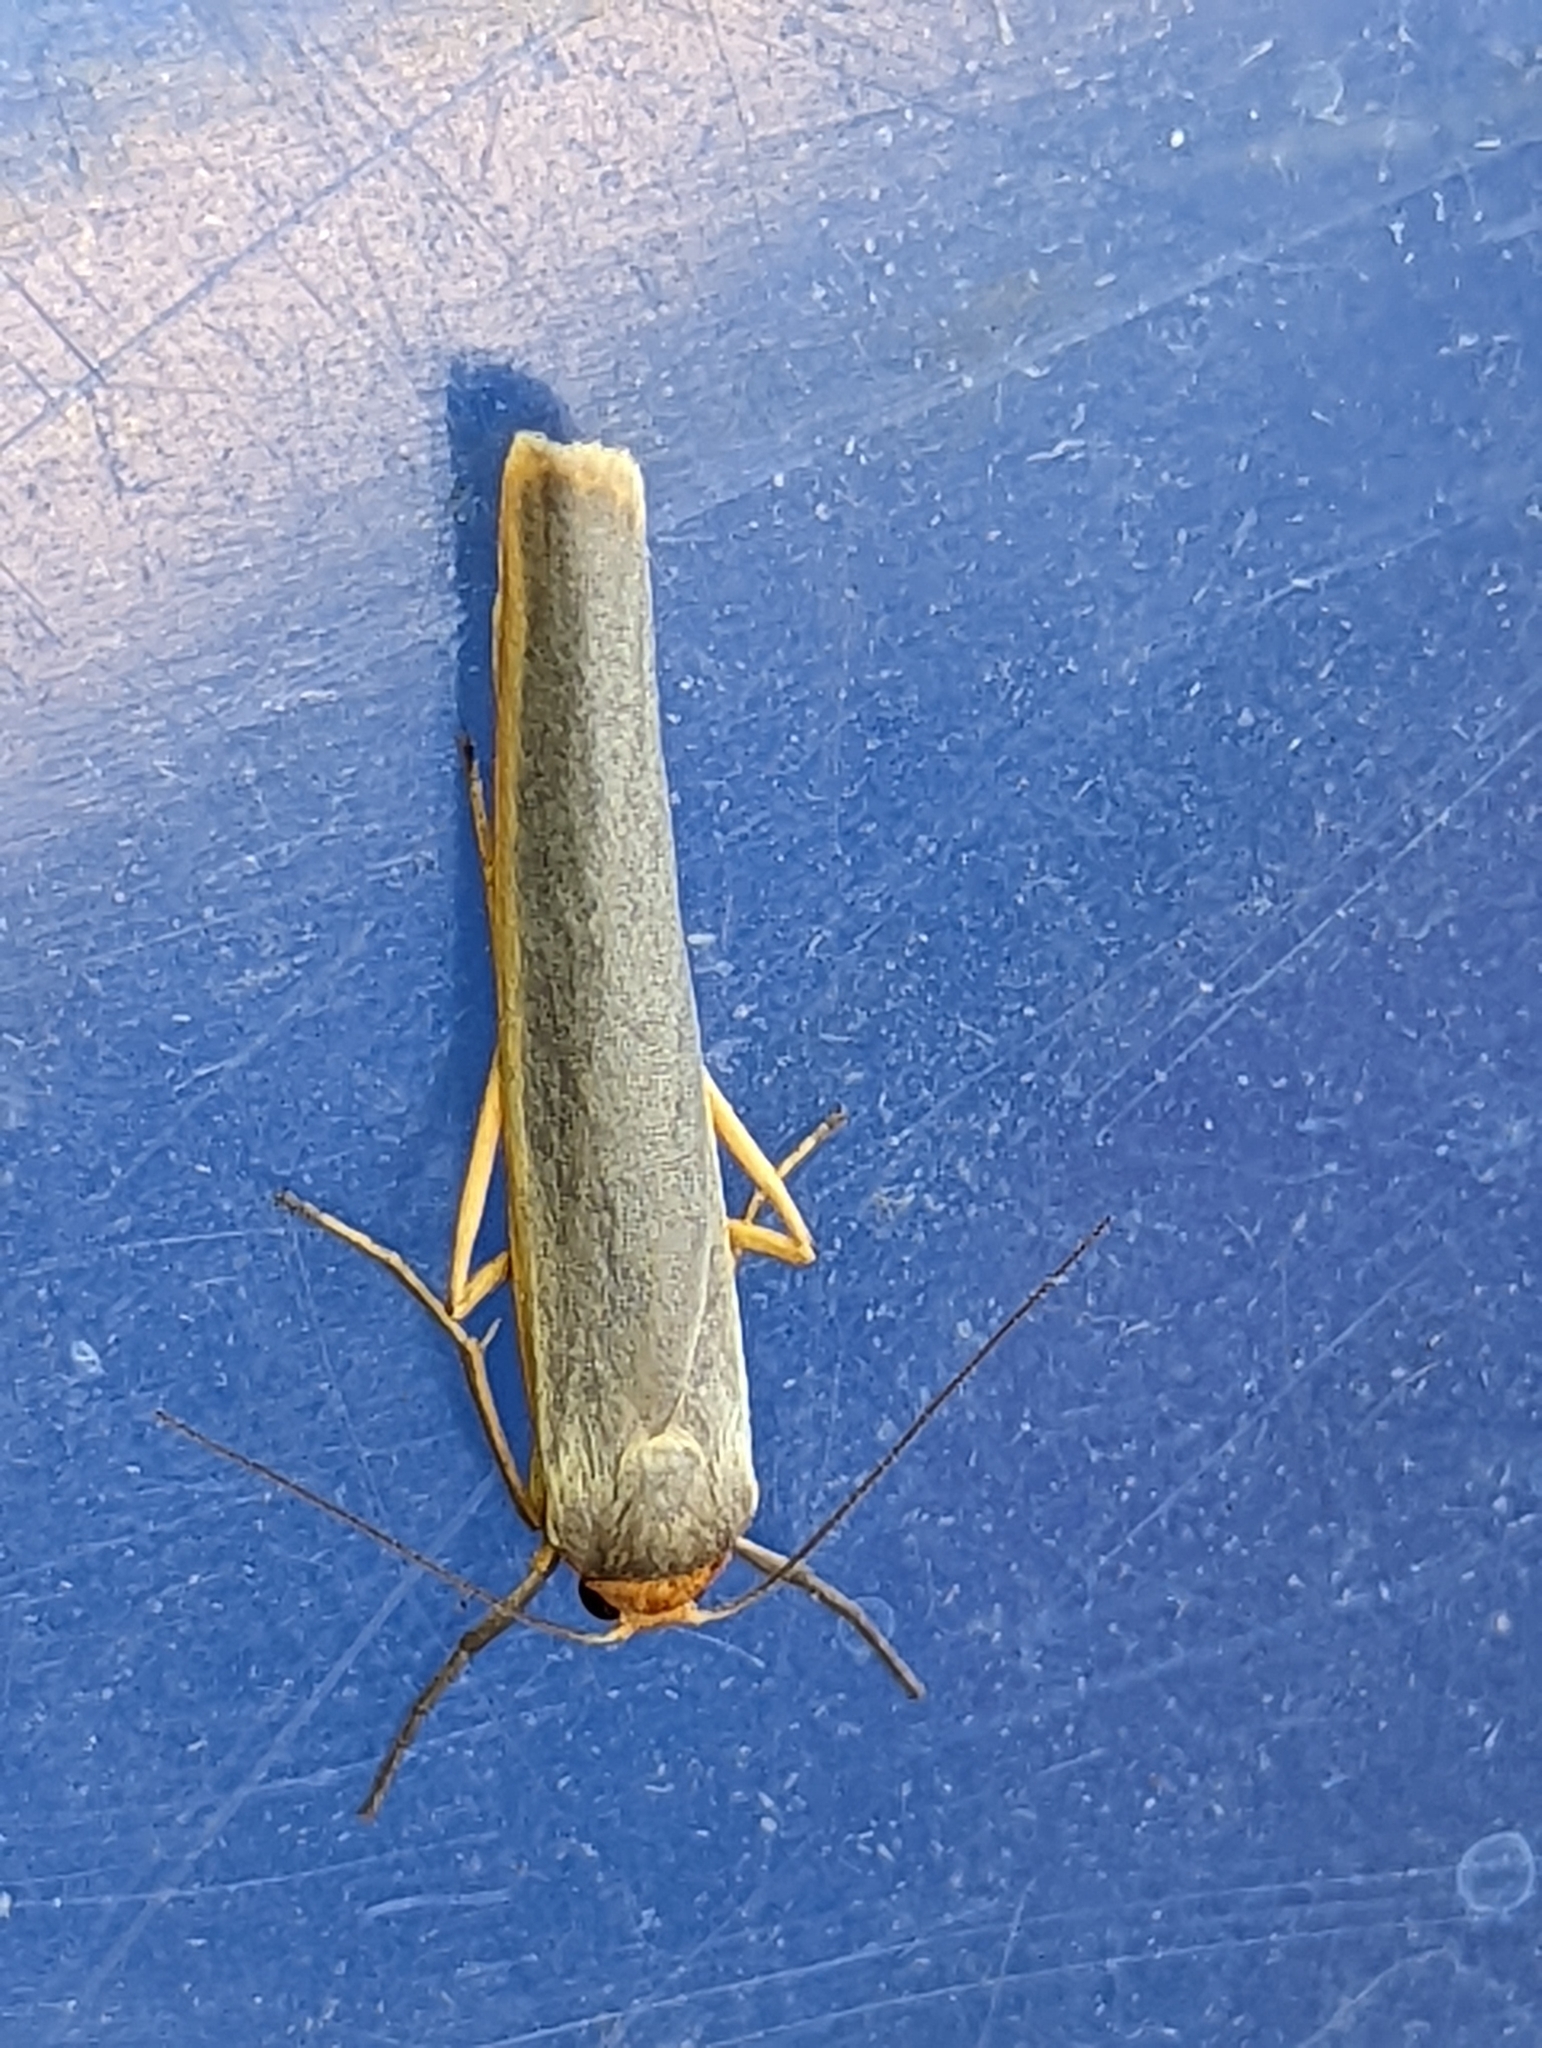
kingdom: Animalia
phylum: Arthropoda
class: Insecta
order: Lepidoptera
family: Erebidae
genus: Manulea
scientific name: Manulea complana
